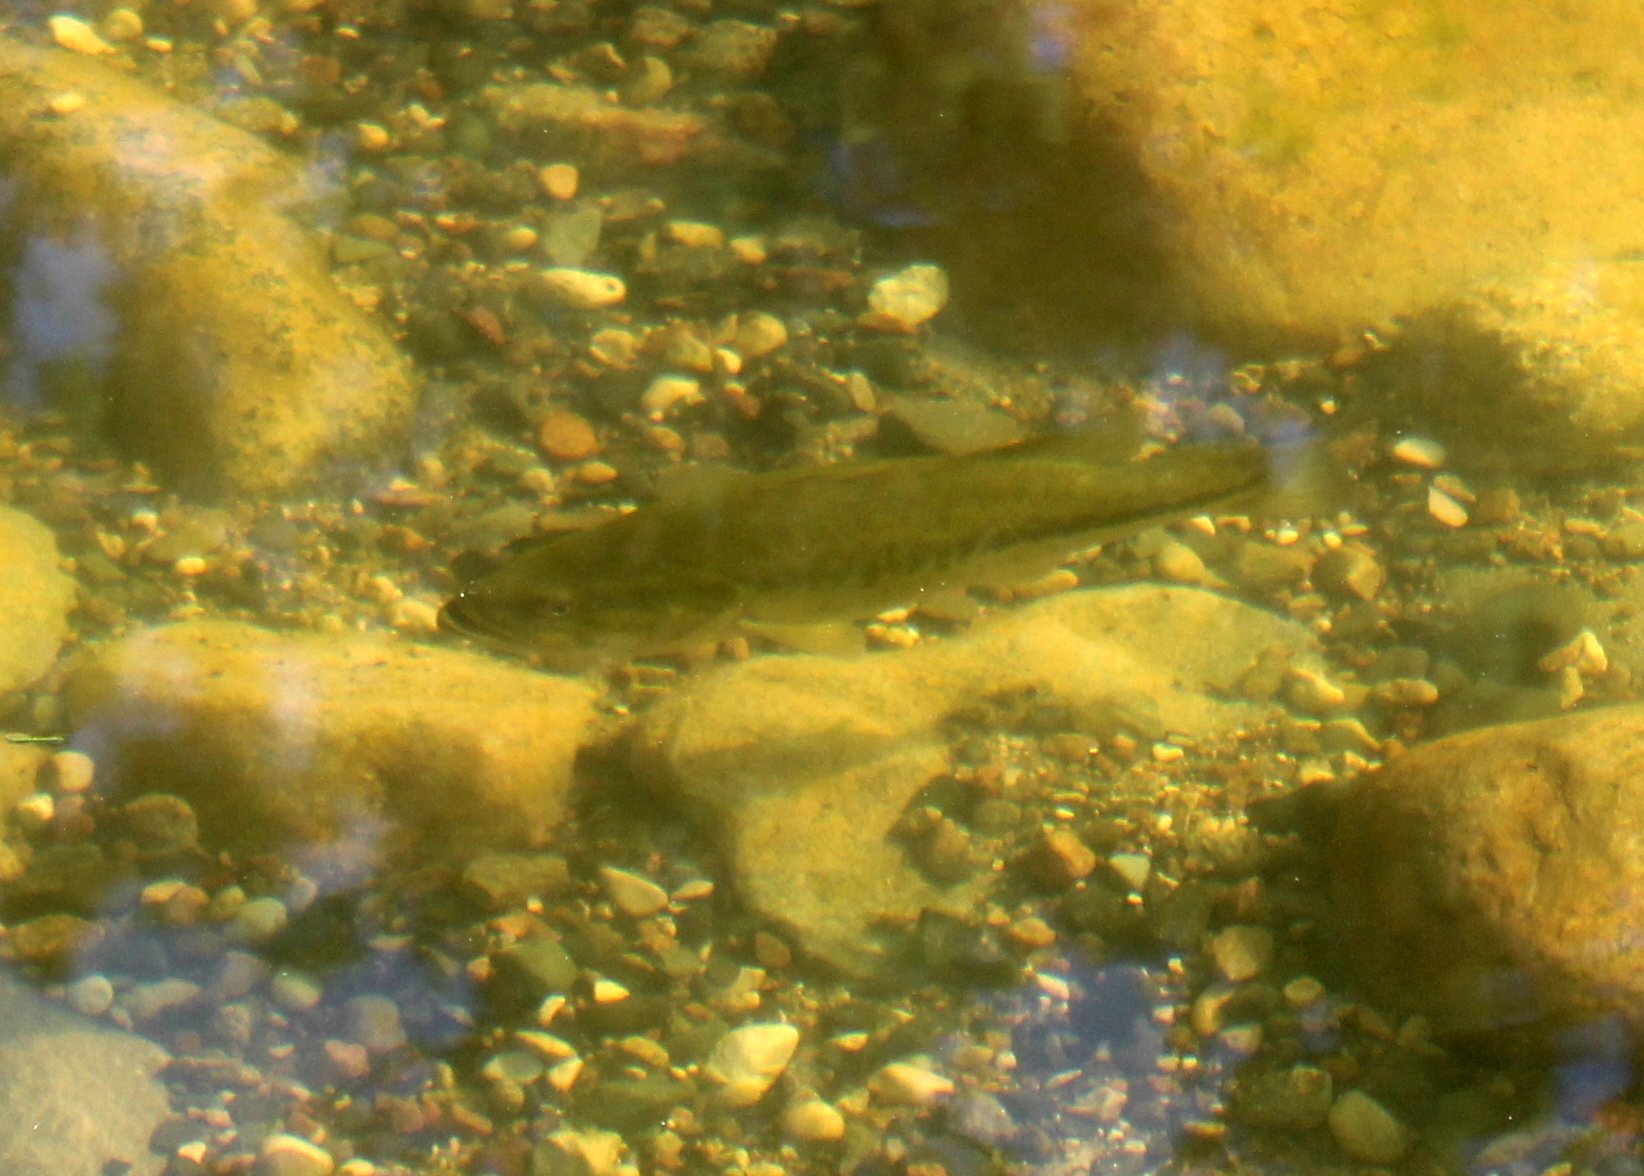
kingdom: Animalia
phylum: Chordata
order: Perciformes
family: Centrarchidae
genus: Micropterus
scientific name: Micropterus
